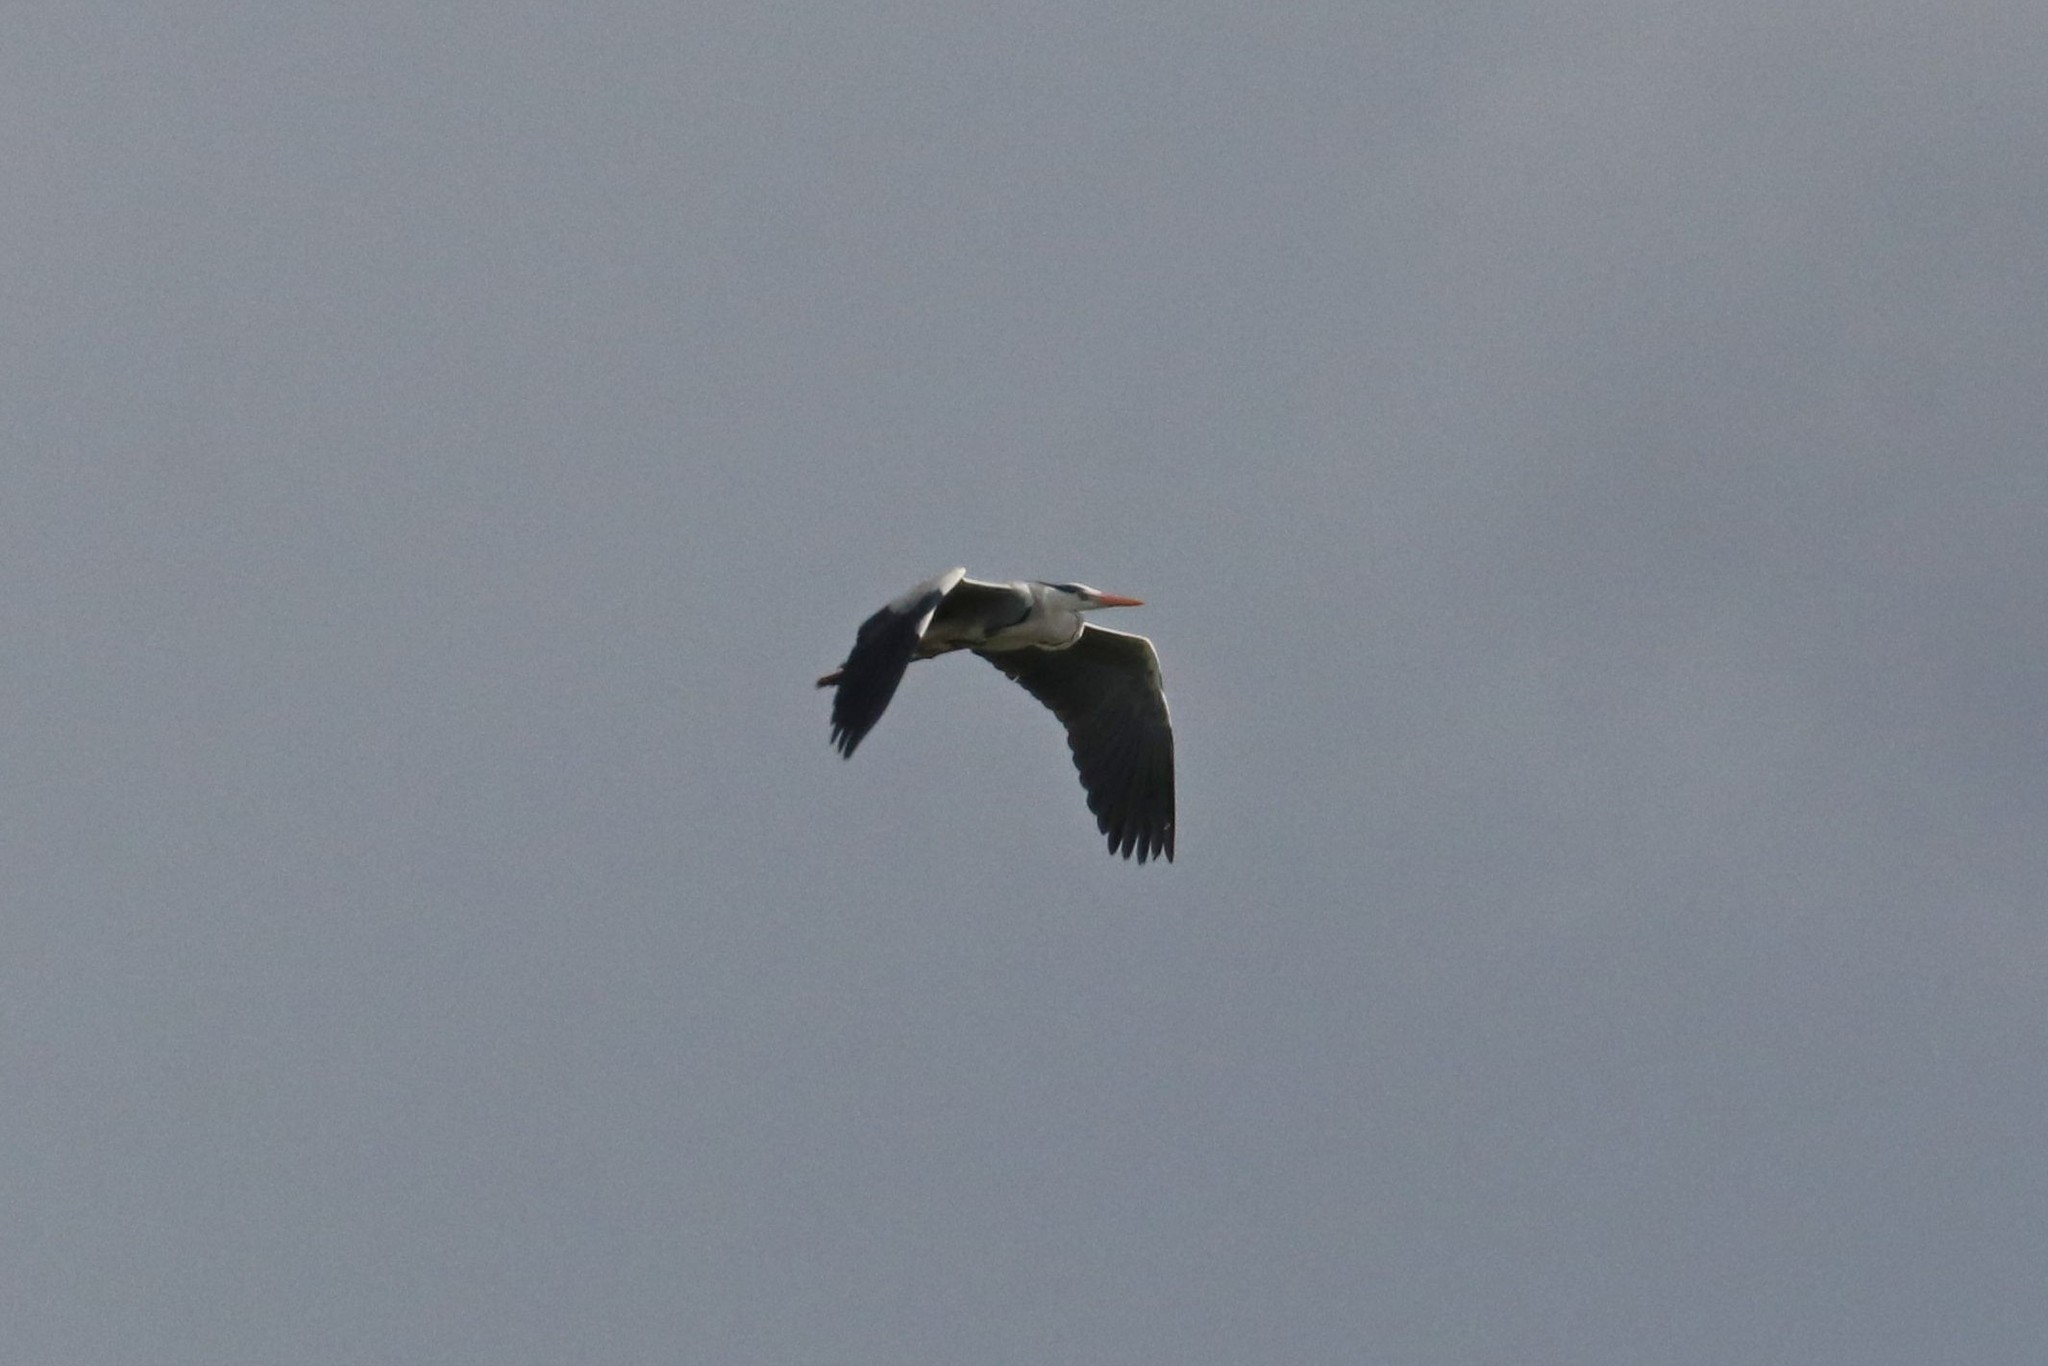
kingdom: Animalia
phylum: Chordata
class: Aves
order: Pelecaniformes
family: Ardeidae
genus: Ardea
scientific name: Ardea cinerea
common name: Grey heron
